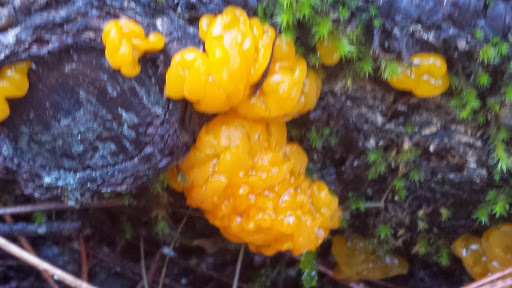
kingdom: Fungi
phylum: Basidiomycota
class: Dacrymycetes
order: Dacrymycetales
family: Dacrymycetaceae
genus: Dacrymyces
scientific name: Dacrymyces chrysospermus
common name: Orange jelly spot
